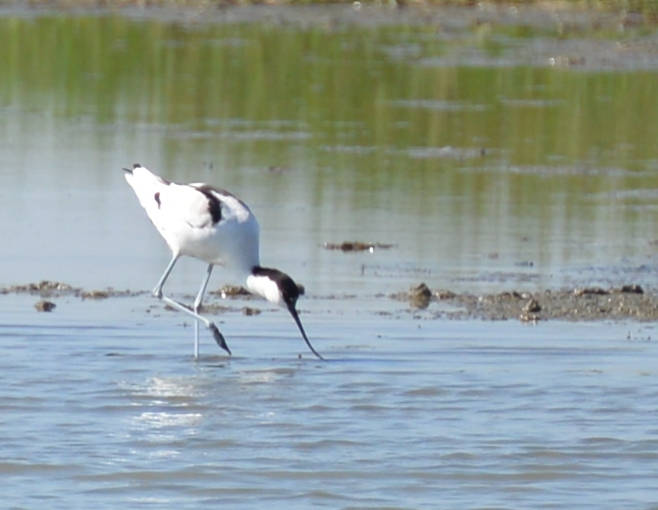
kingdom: Animalia
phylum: Chordata
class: Aves
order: Charadriiformes
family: Recurvirostridae
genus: Recurvirostra
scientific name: Recurvirostra avosetta
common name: Pied avocet
